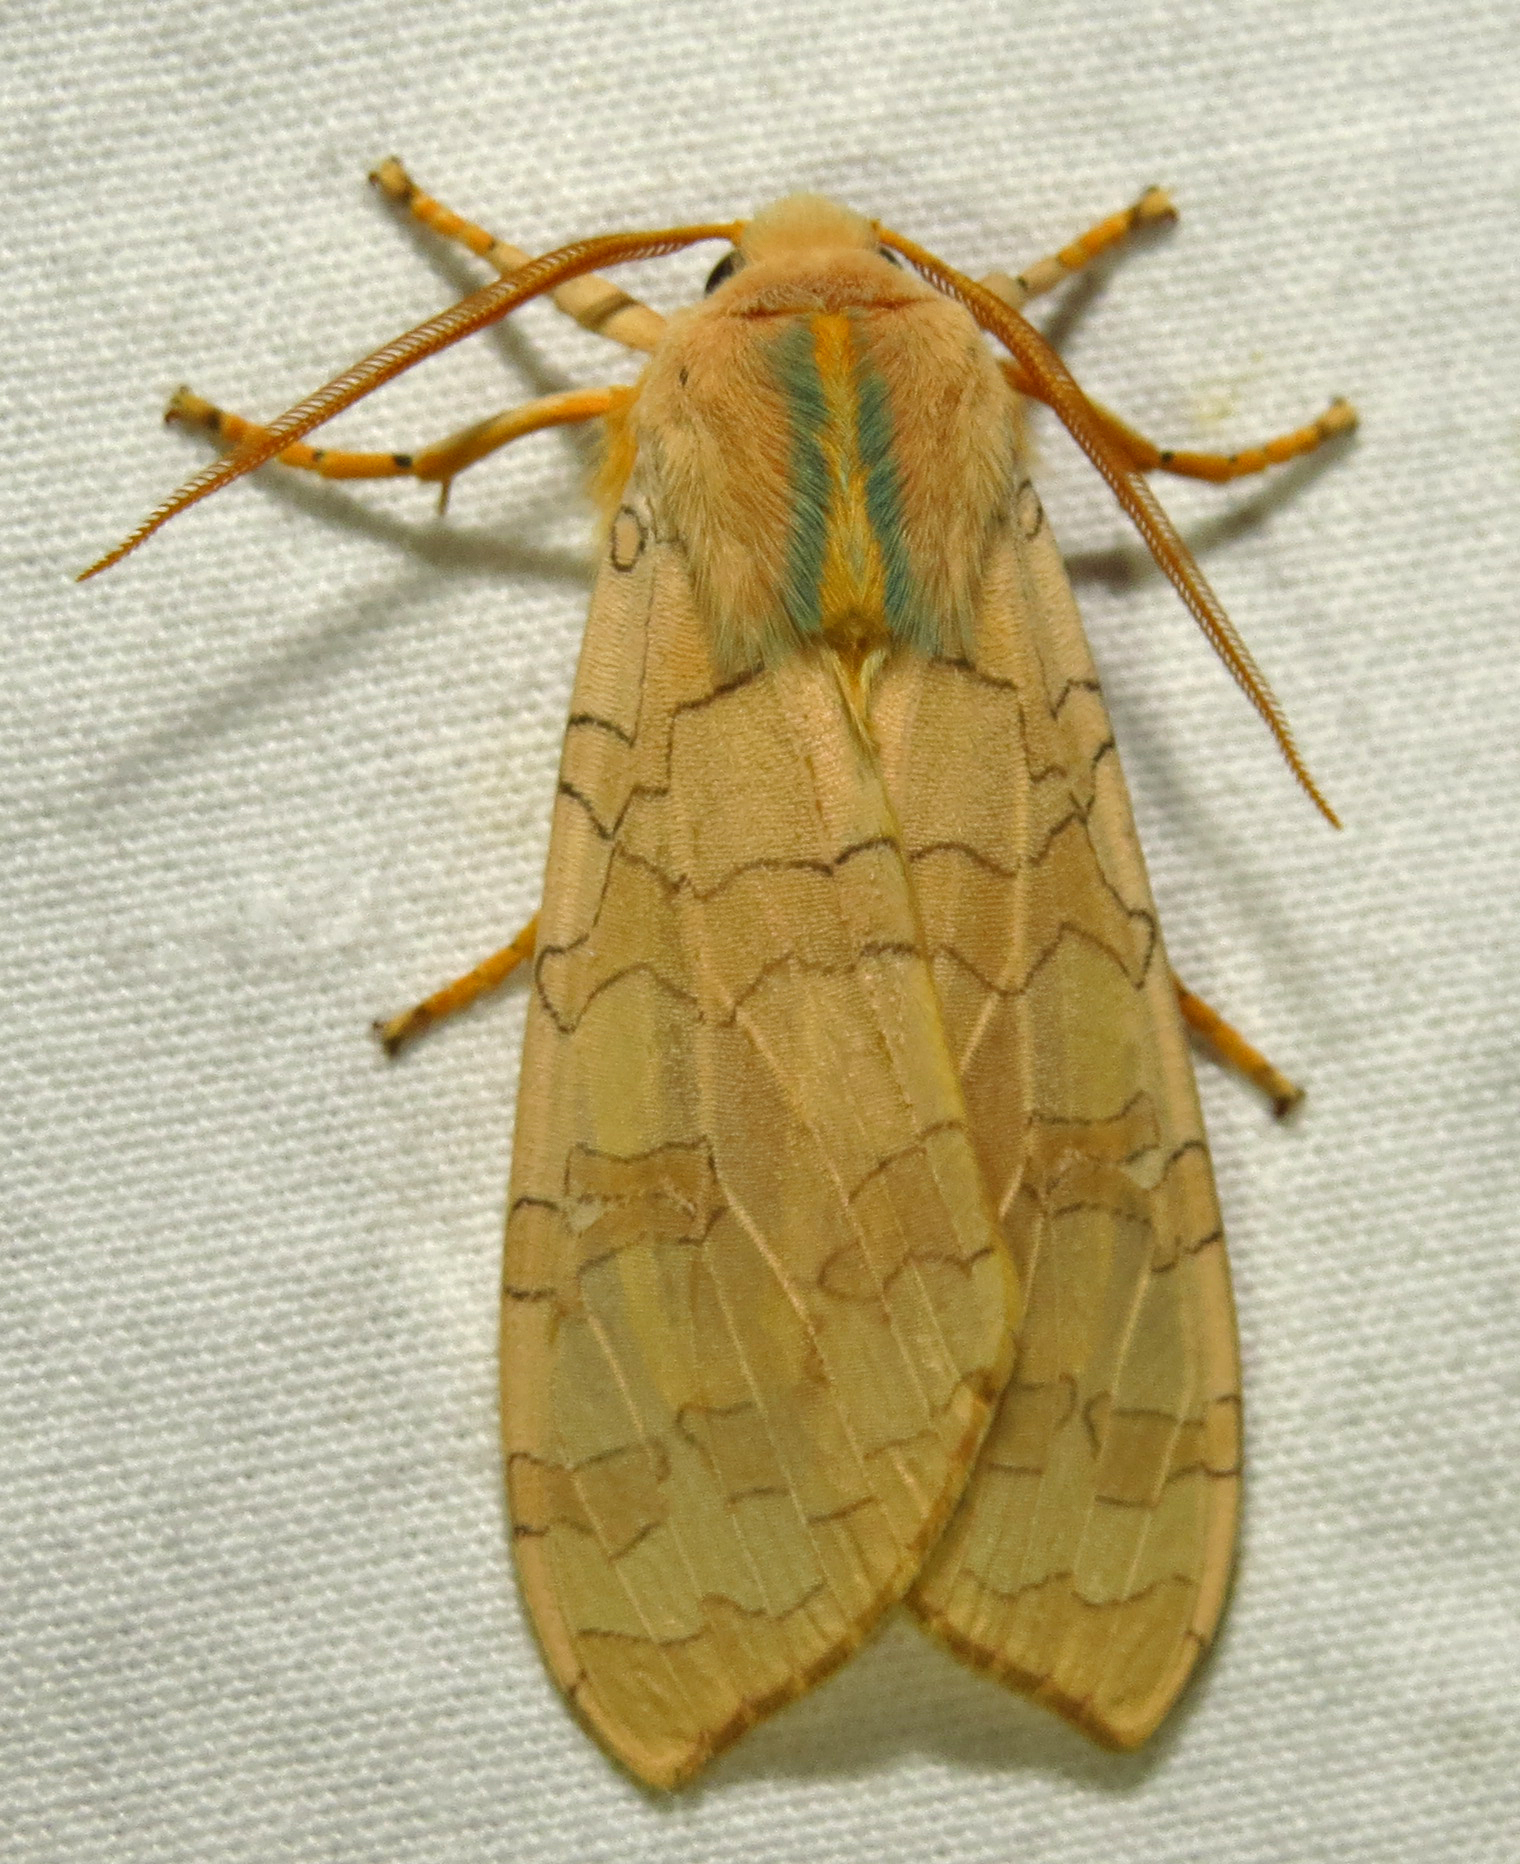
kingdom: Animalia
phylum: Arthropoda
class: Insecta
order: Lepidoptera
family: Erebidae
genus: Halysidota
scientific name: Halysidota
